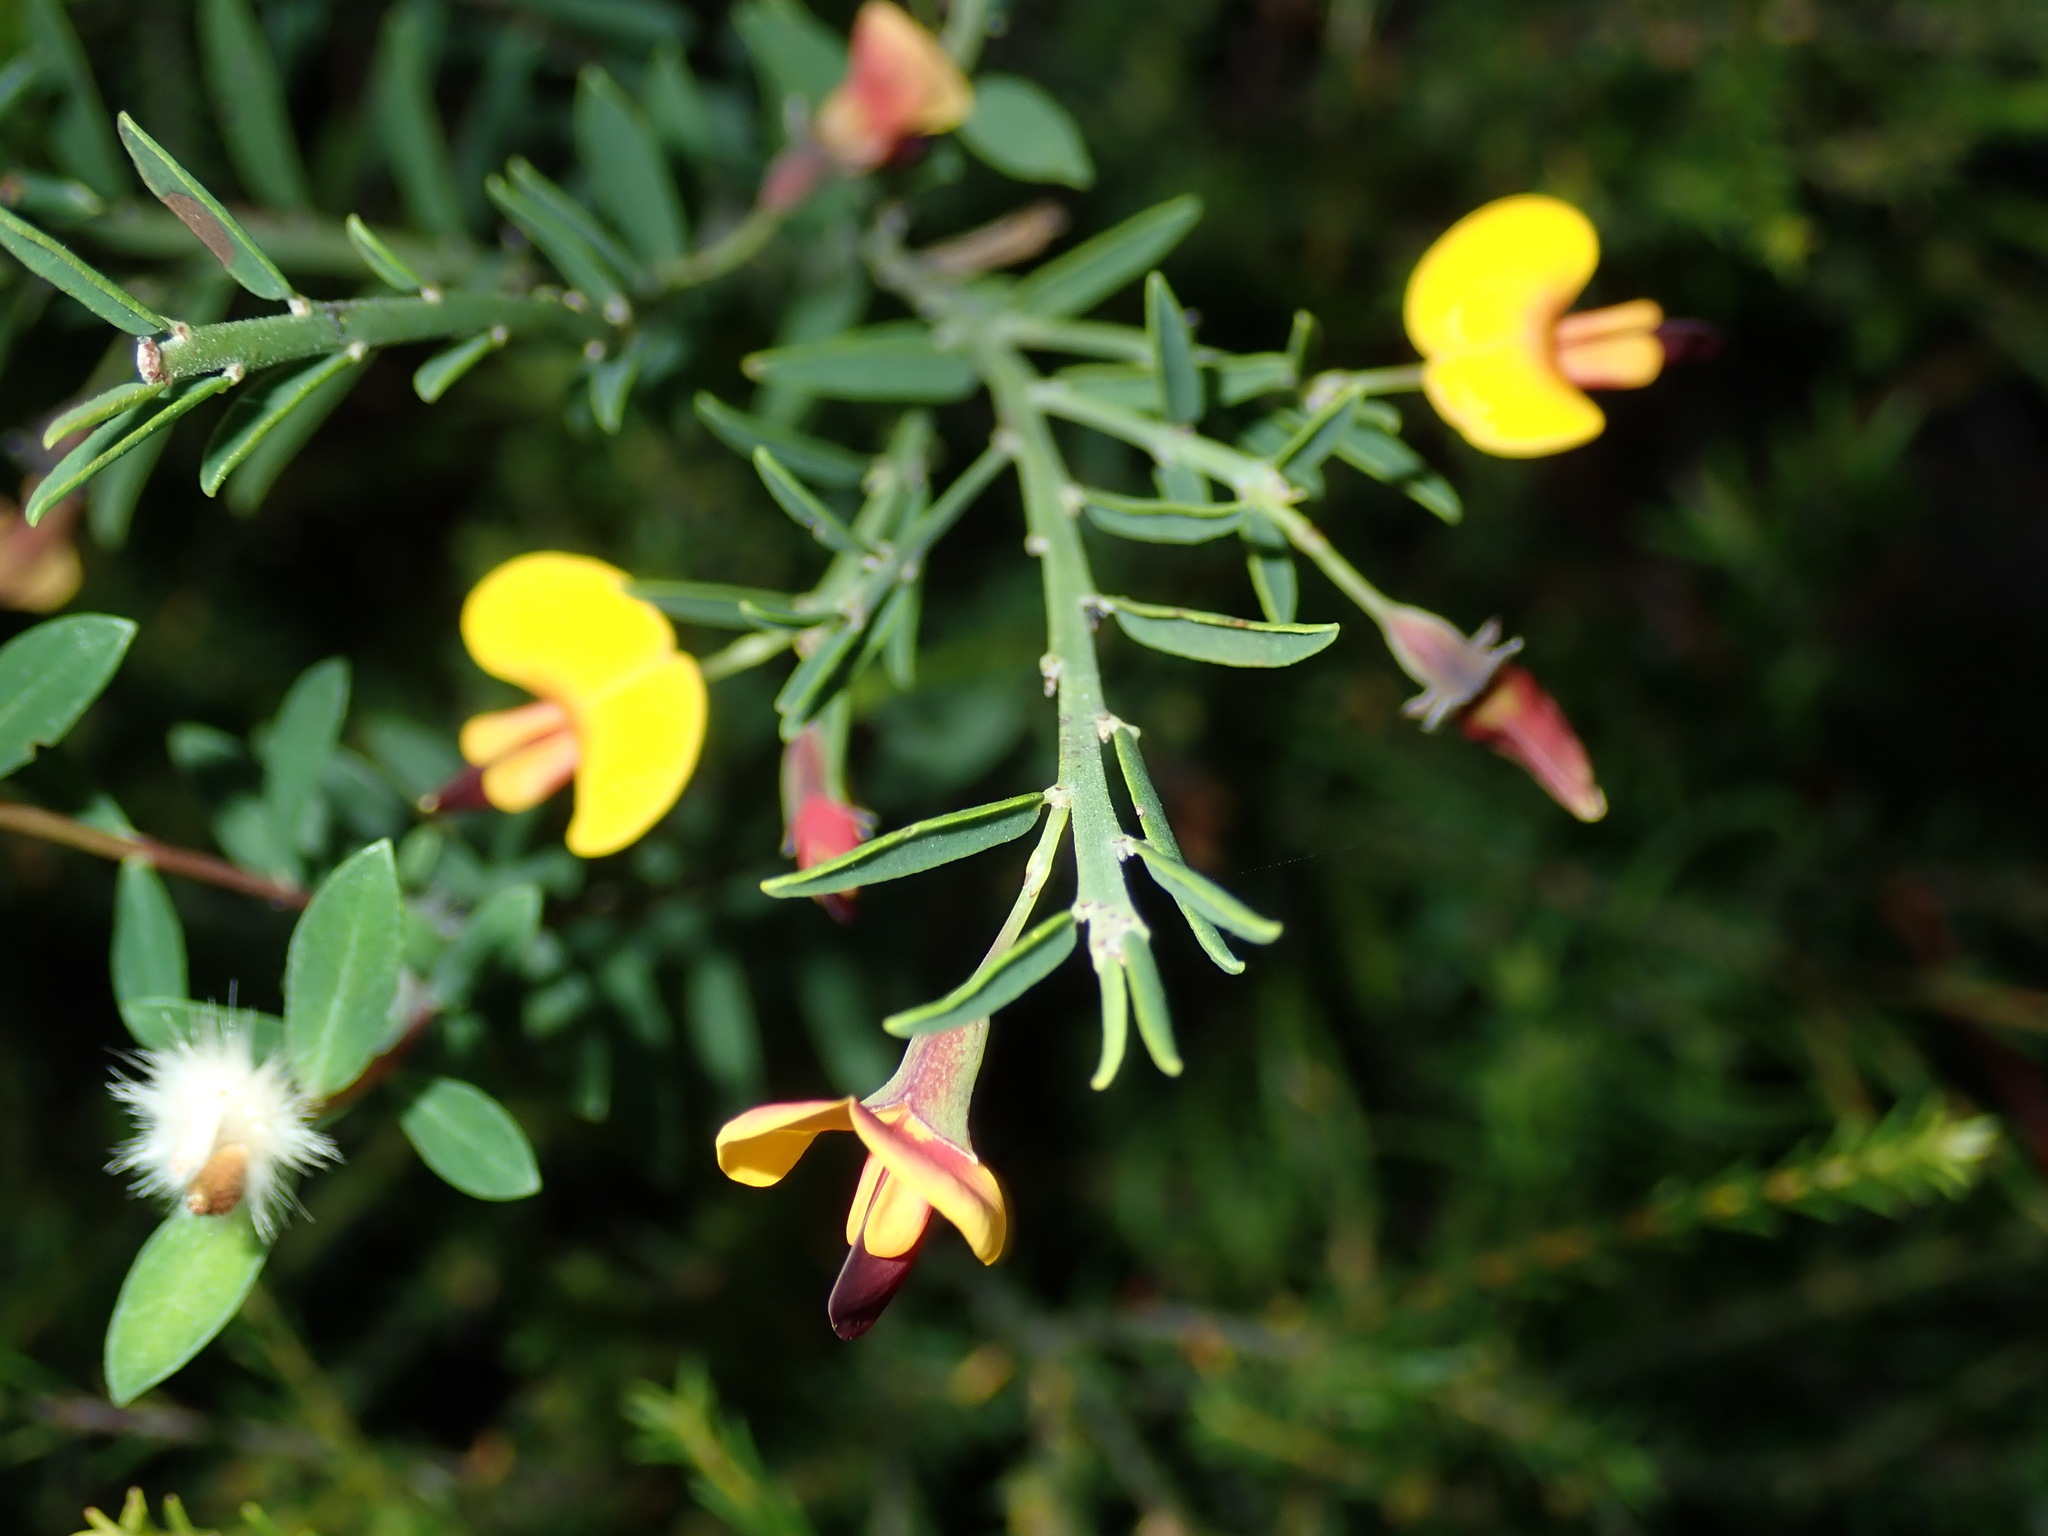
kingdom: Plantae
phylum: Tracheophyta
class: Magnoliopsida
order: Fabales
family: Fabaceae
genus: Bossiaea
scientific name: Bossiaea heterophylla
